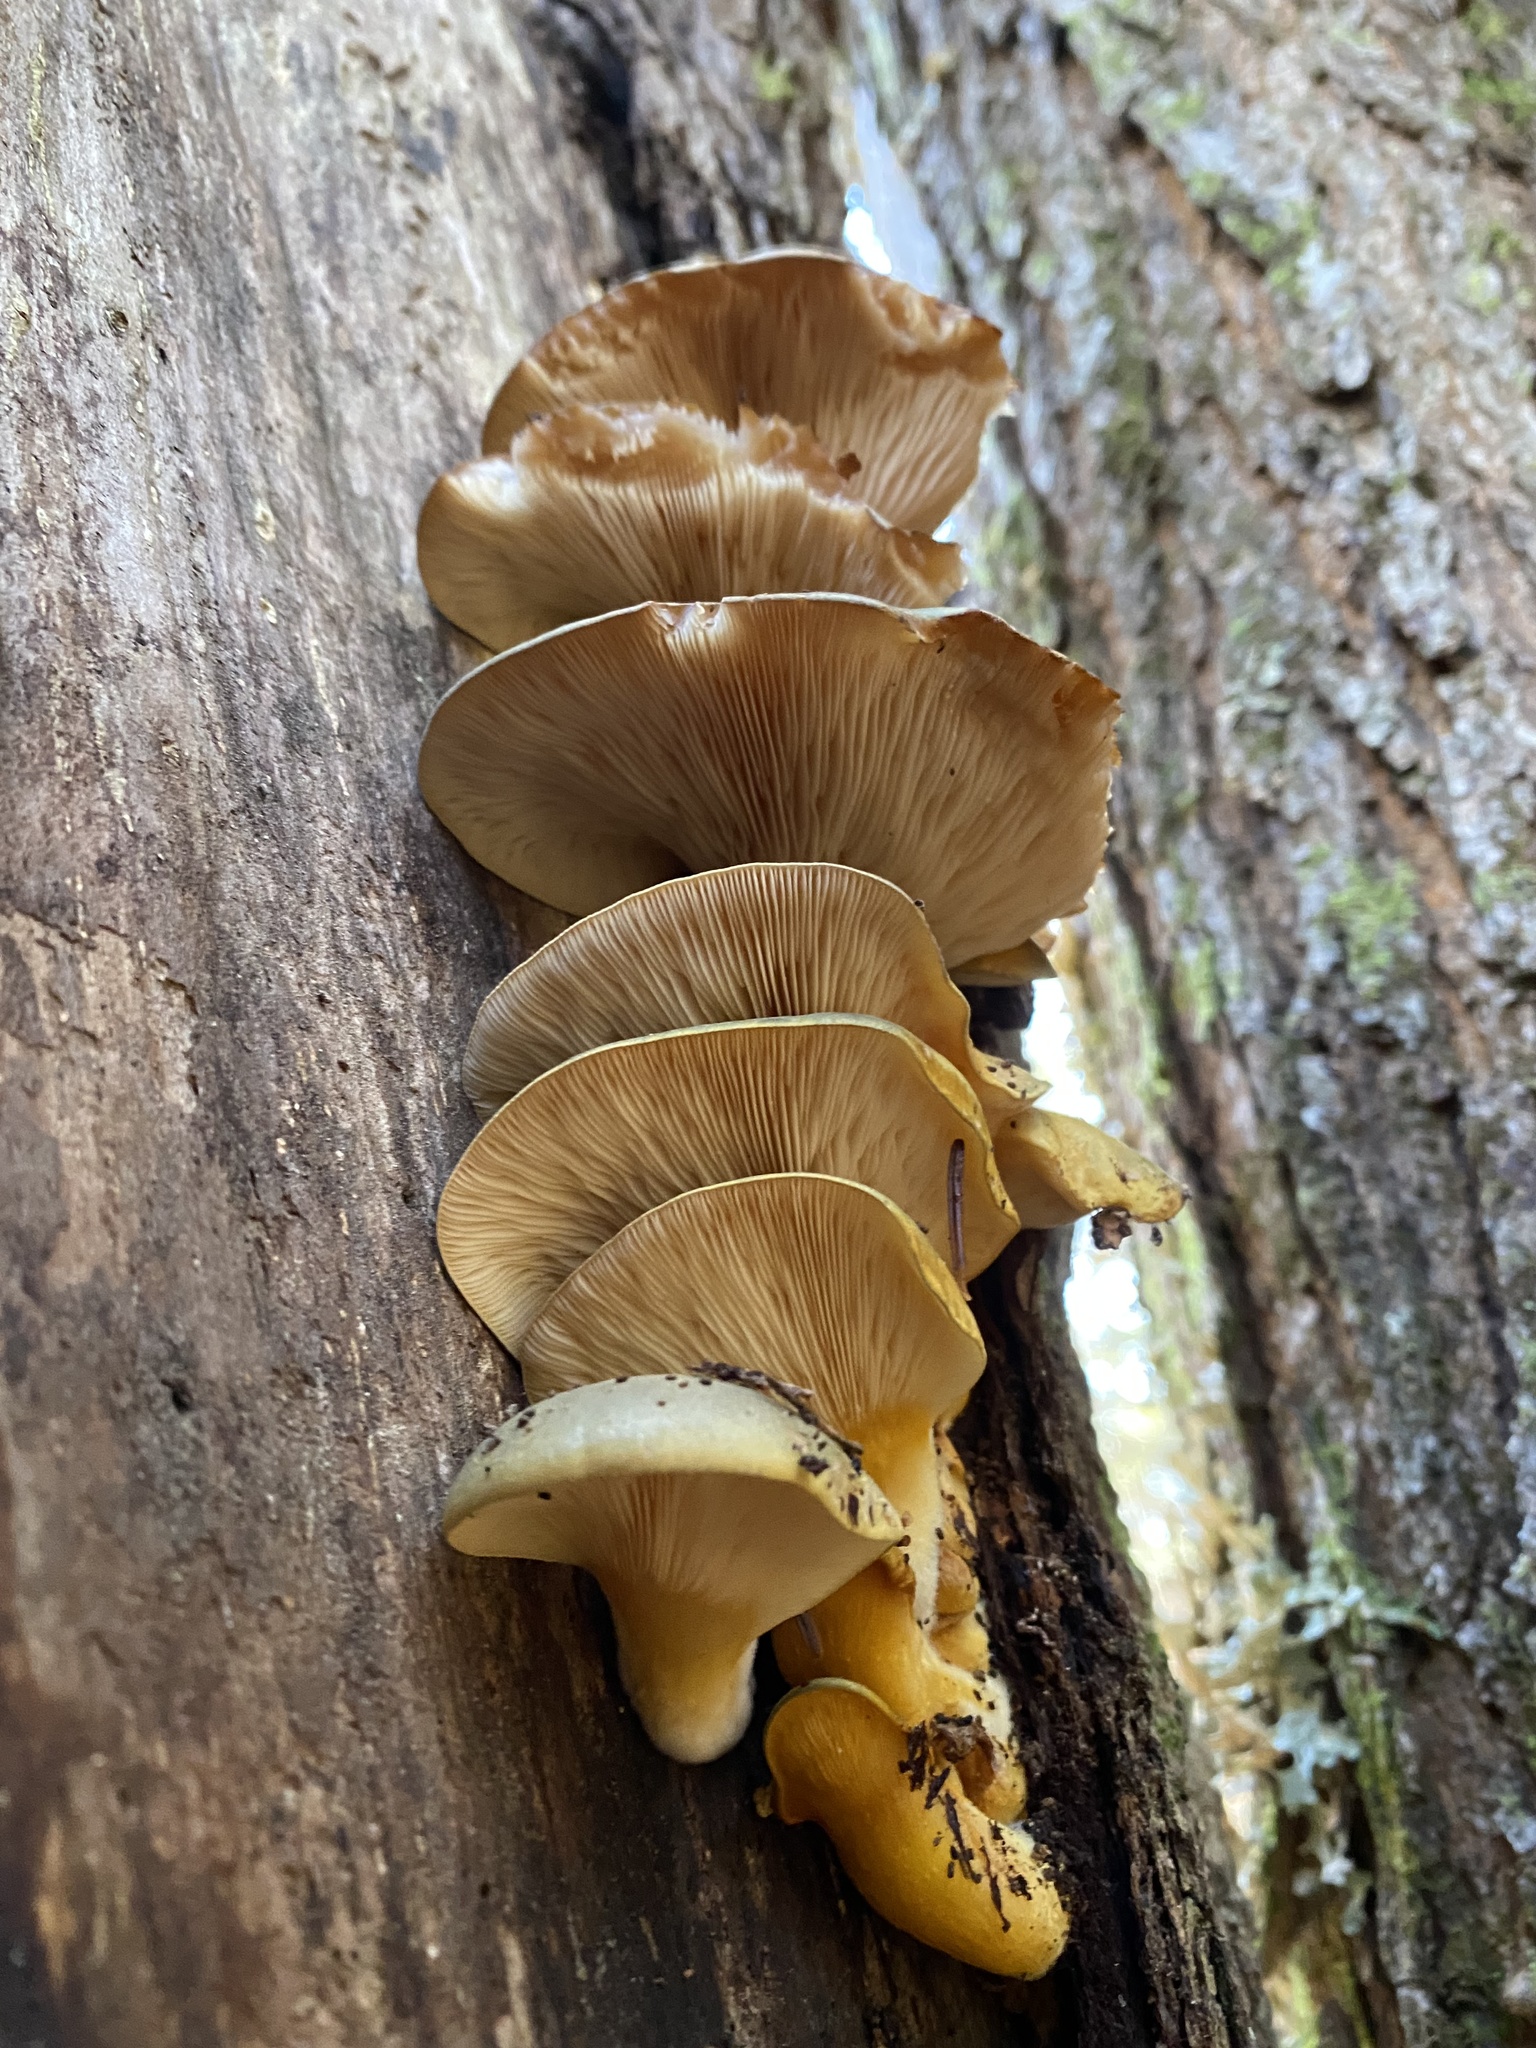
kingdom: Fungi
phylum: Basidiomycota
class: Agaricomycetes
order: Agaricales
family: Sarcomyxaceae
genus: Sarcomyxa
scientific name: Sarcomyxa serotina
